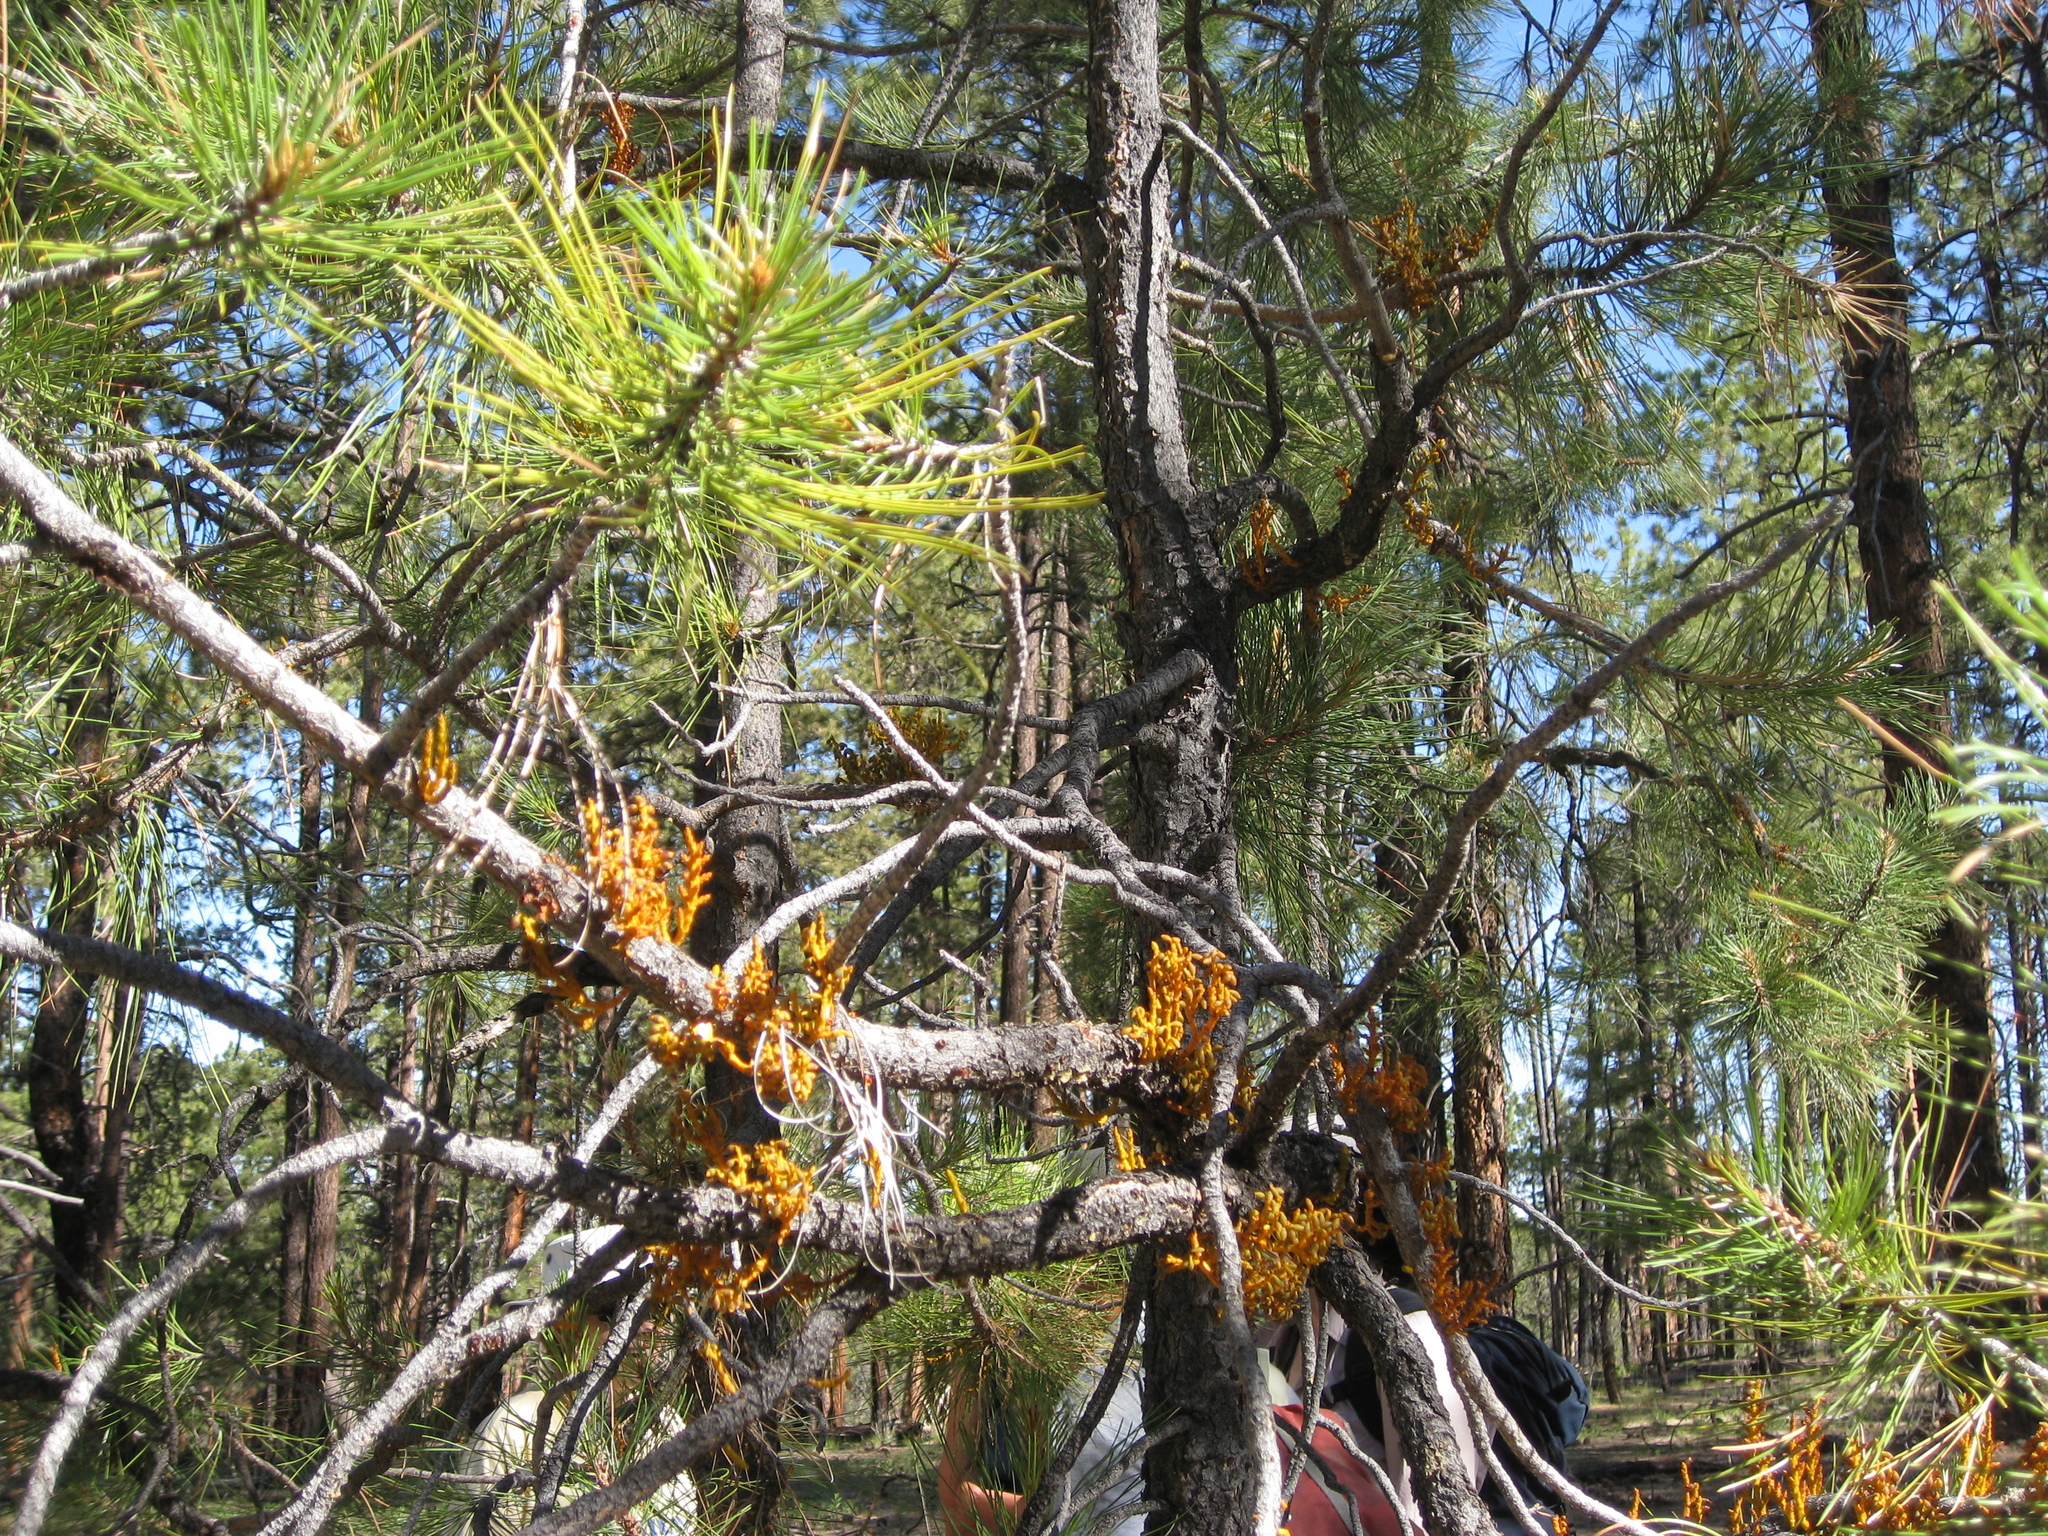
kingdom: Plantae
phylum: Tracheophyta
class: Magnoliopsida
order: Santalales
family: Viscaceae
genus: Arceuthobium
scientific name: Arceuthobium vaginatum
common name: Southwestern dwarf-mistletoe
